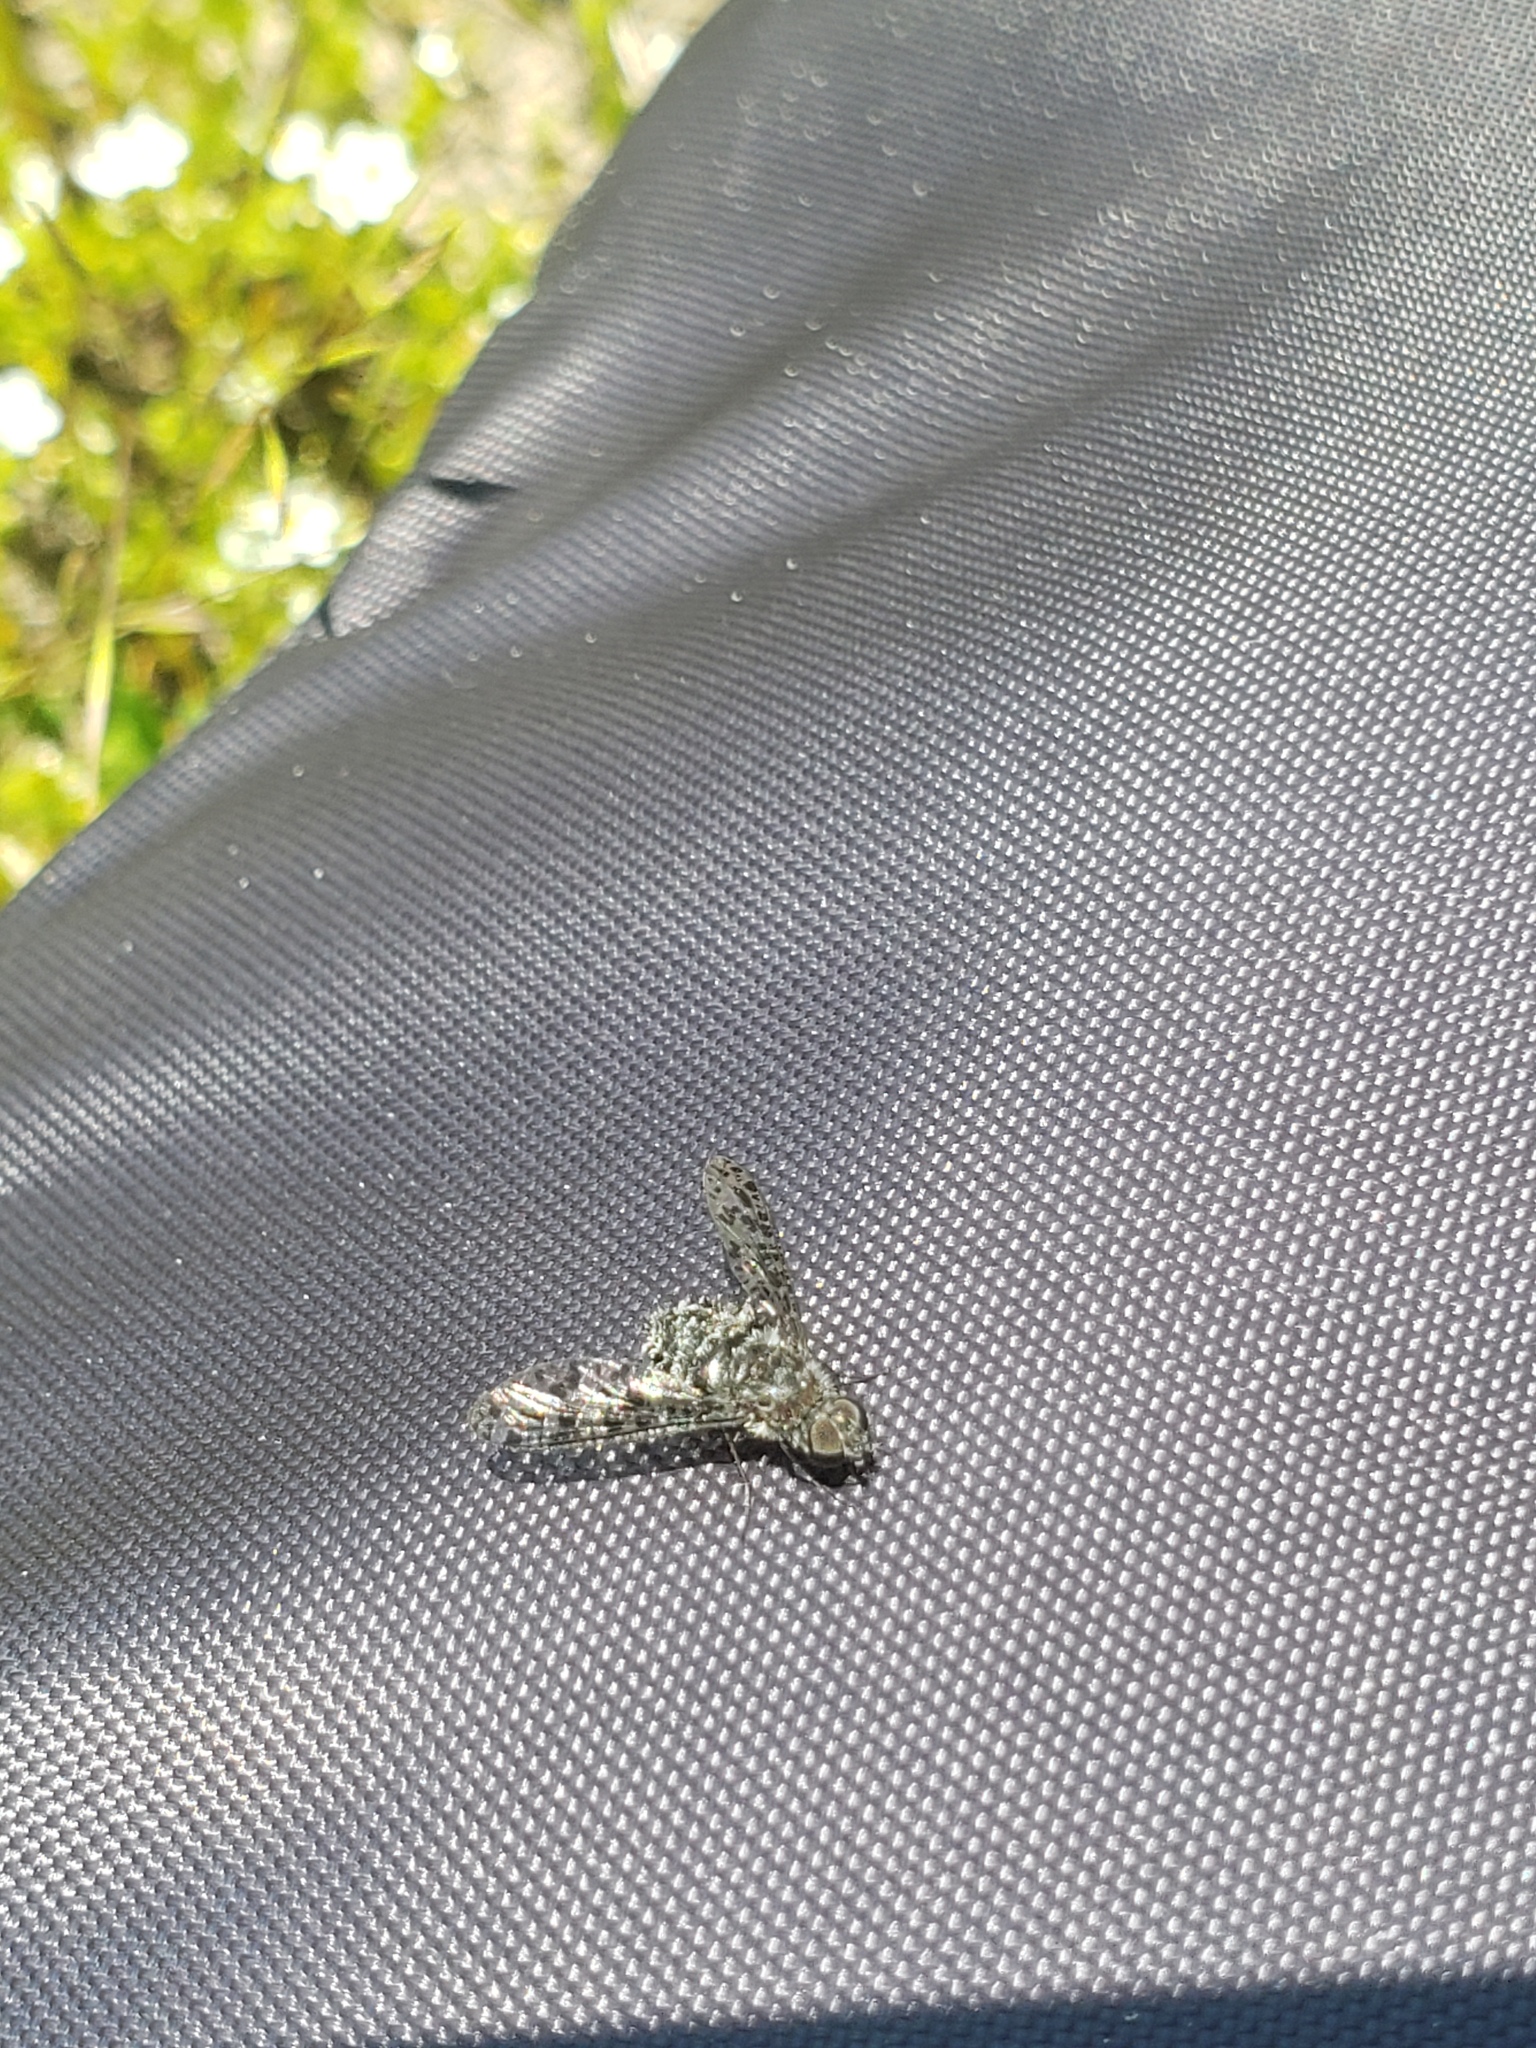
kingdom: Animalia
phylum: Arthropoda
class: Insecta
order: Diptera
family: Bombyliidae
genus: Anthrax
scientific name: Anthrax irroratus
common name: Spotted bee fly
